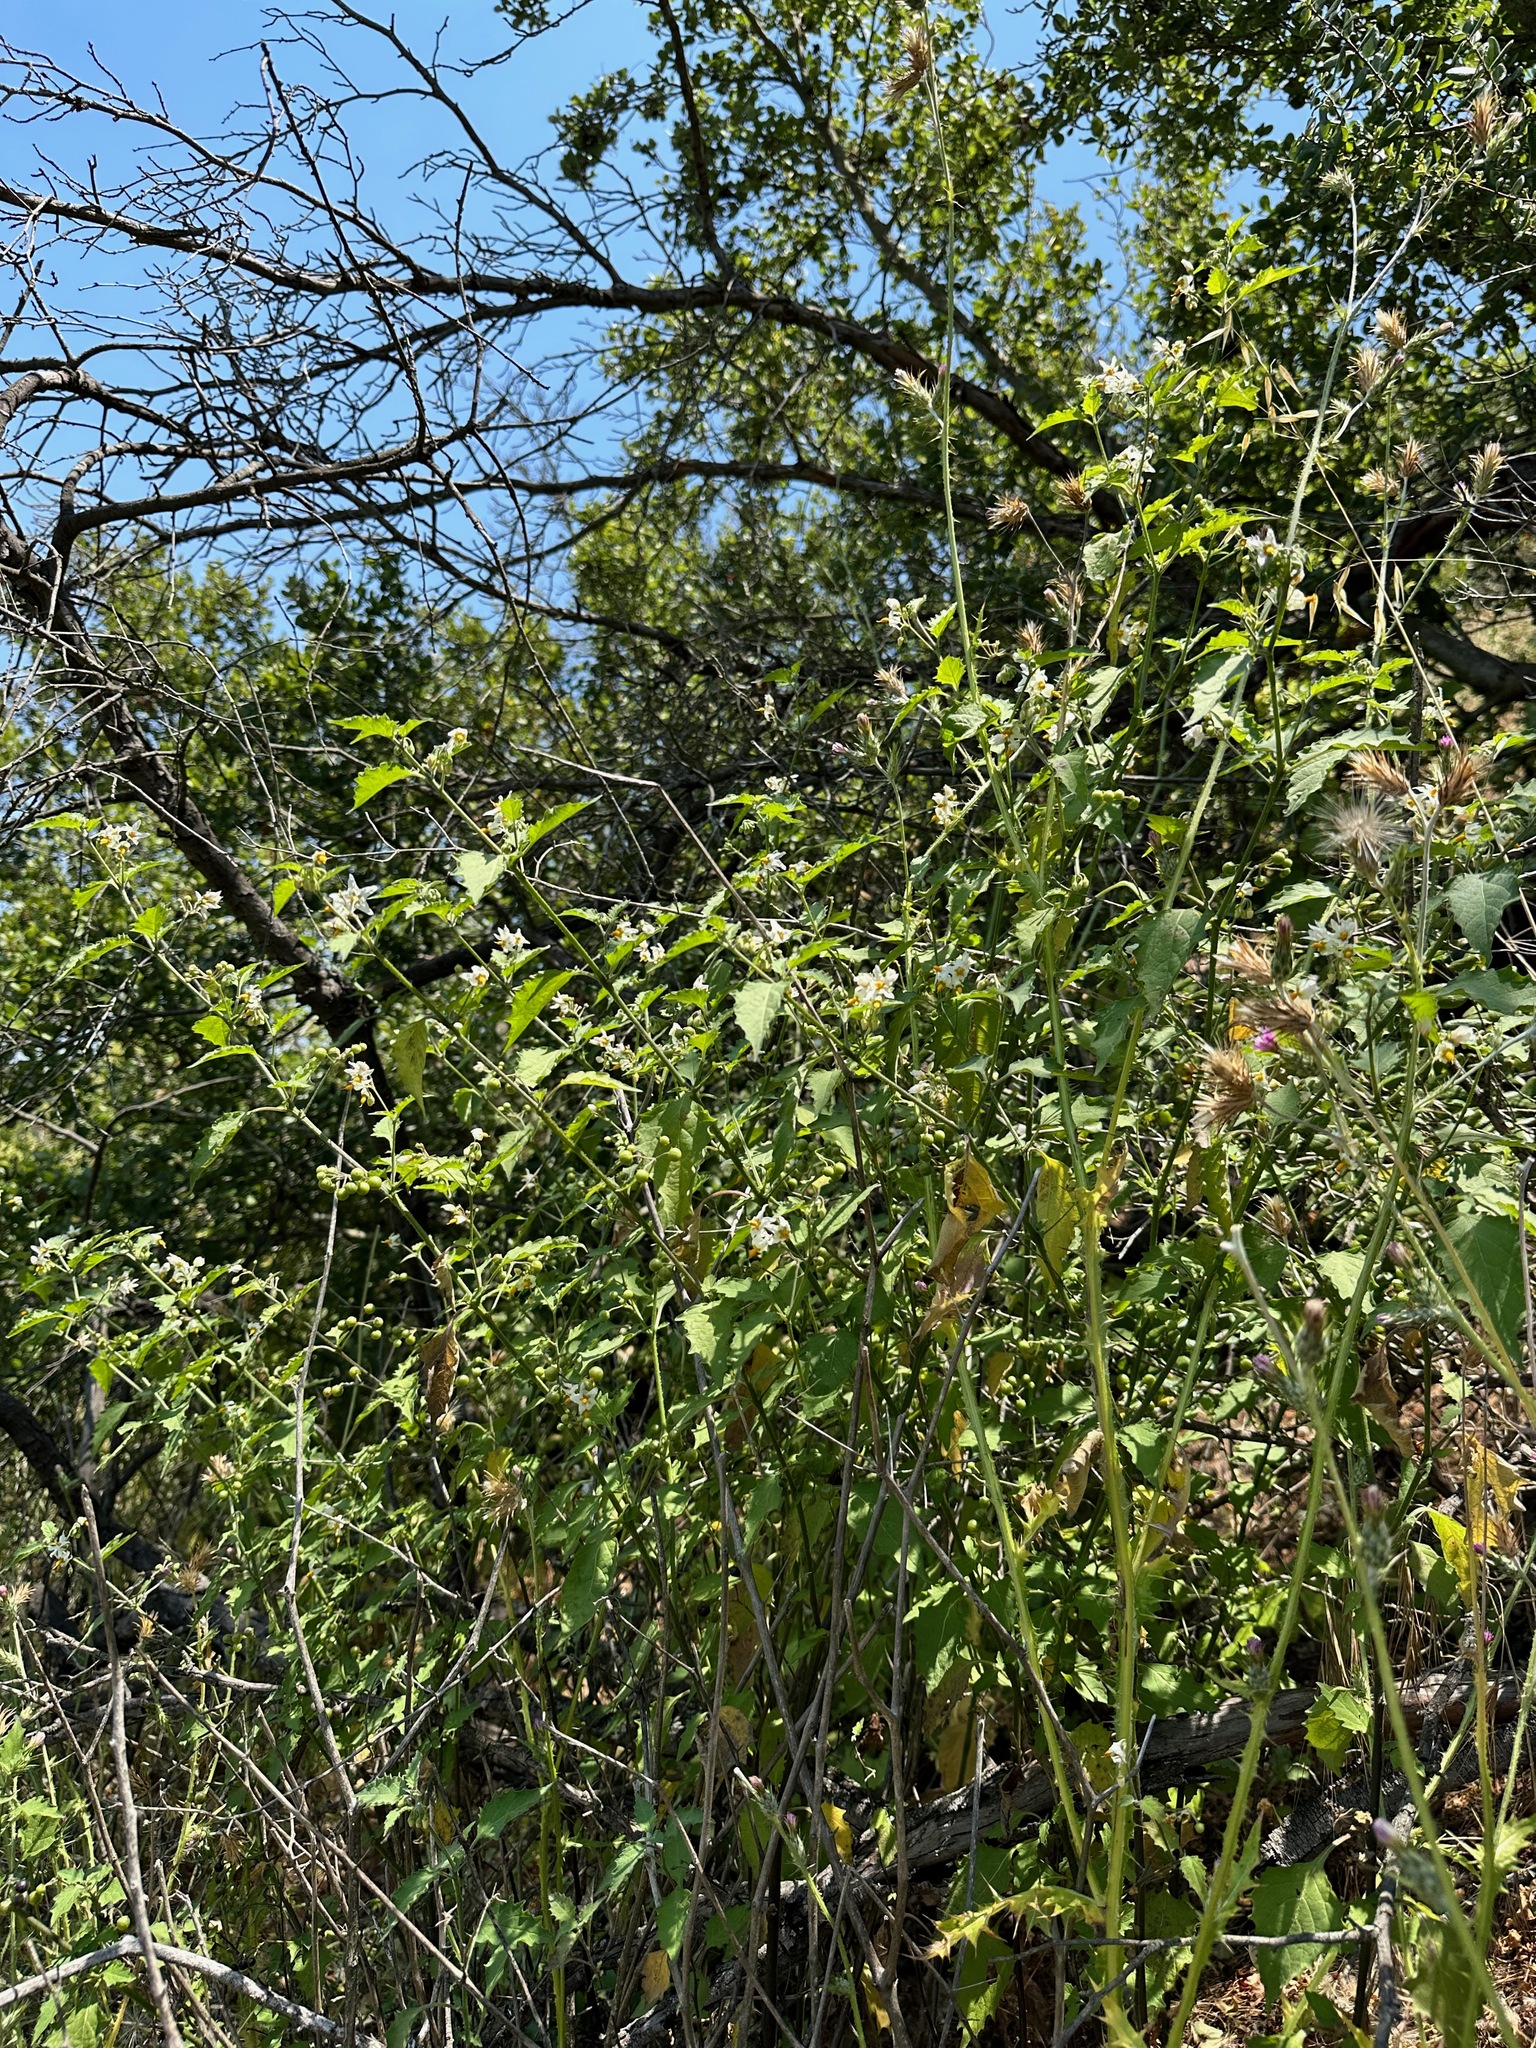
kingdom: Plantae
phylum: Tracheophyta
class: Magnoliopsida
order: Solanales
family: Solanaceae
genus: Solanum
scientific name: Solanum douglasii
